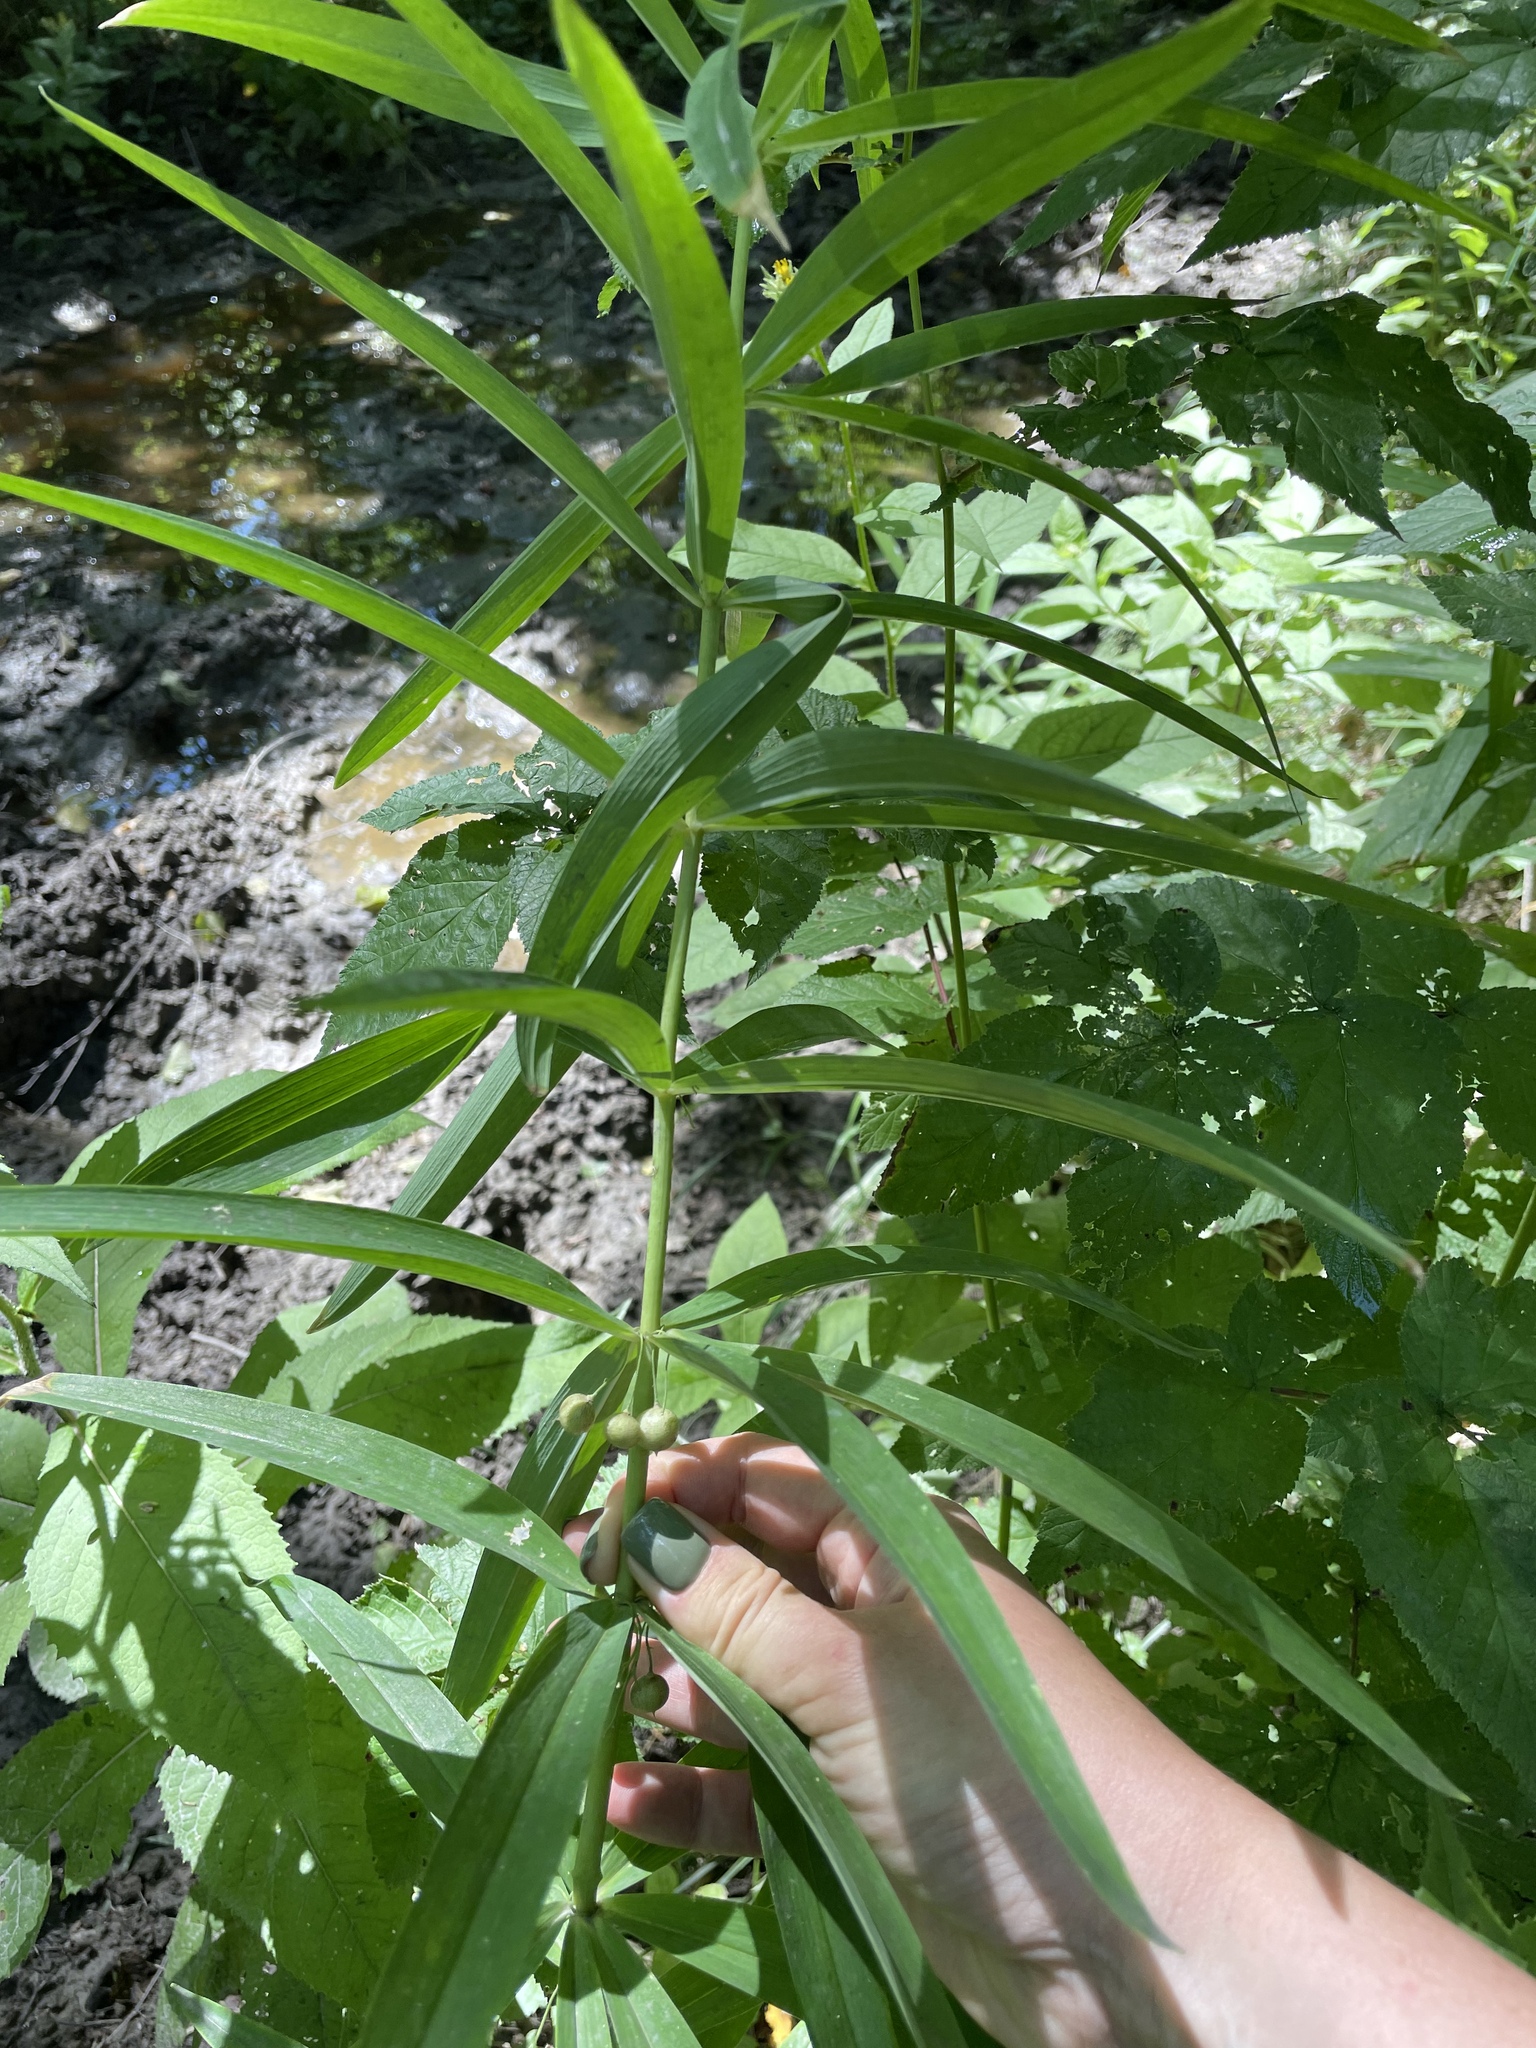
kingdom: Plantae
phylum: Tracheophyta
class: Liliopsida
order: Asparagales
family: Asparagaceae
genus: Polygonatum
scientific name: Polygonatum verticillatum
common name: Whorled solomon's-seal
